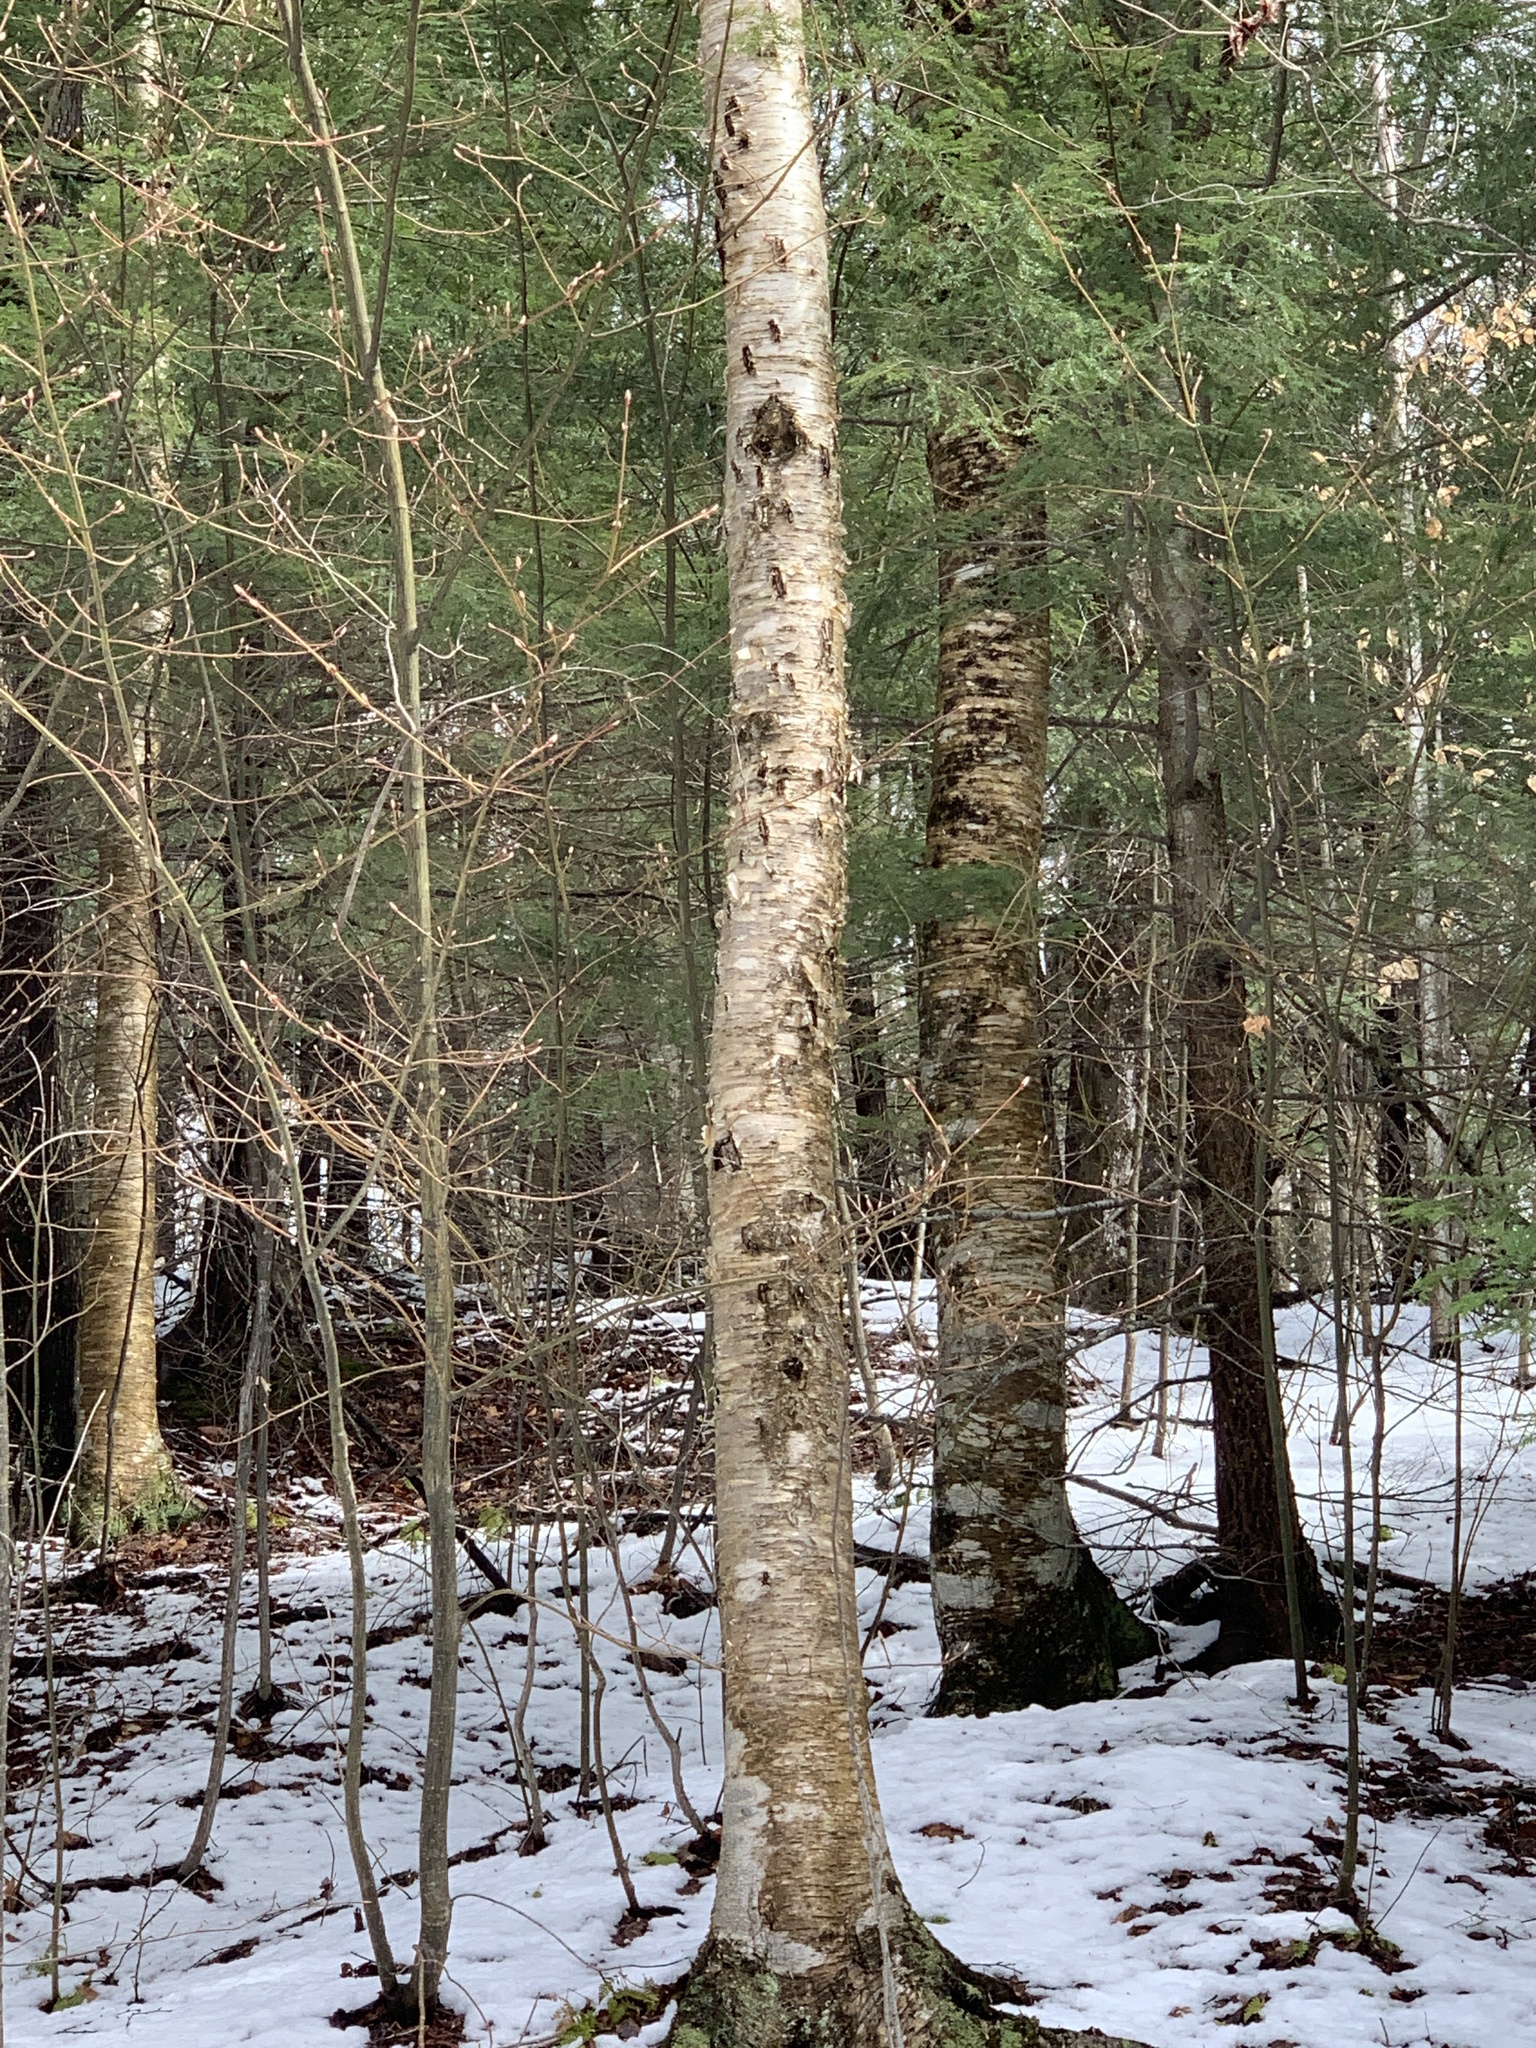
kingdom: Plantae
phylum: Tracheophyta
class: Magnoliopsida
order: Fagales
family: Betulaceae
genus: Betula
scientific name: Betula alleghaniensis
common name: Yellow birch
